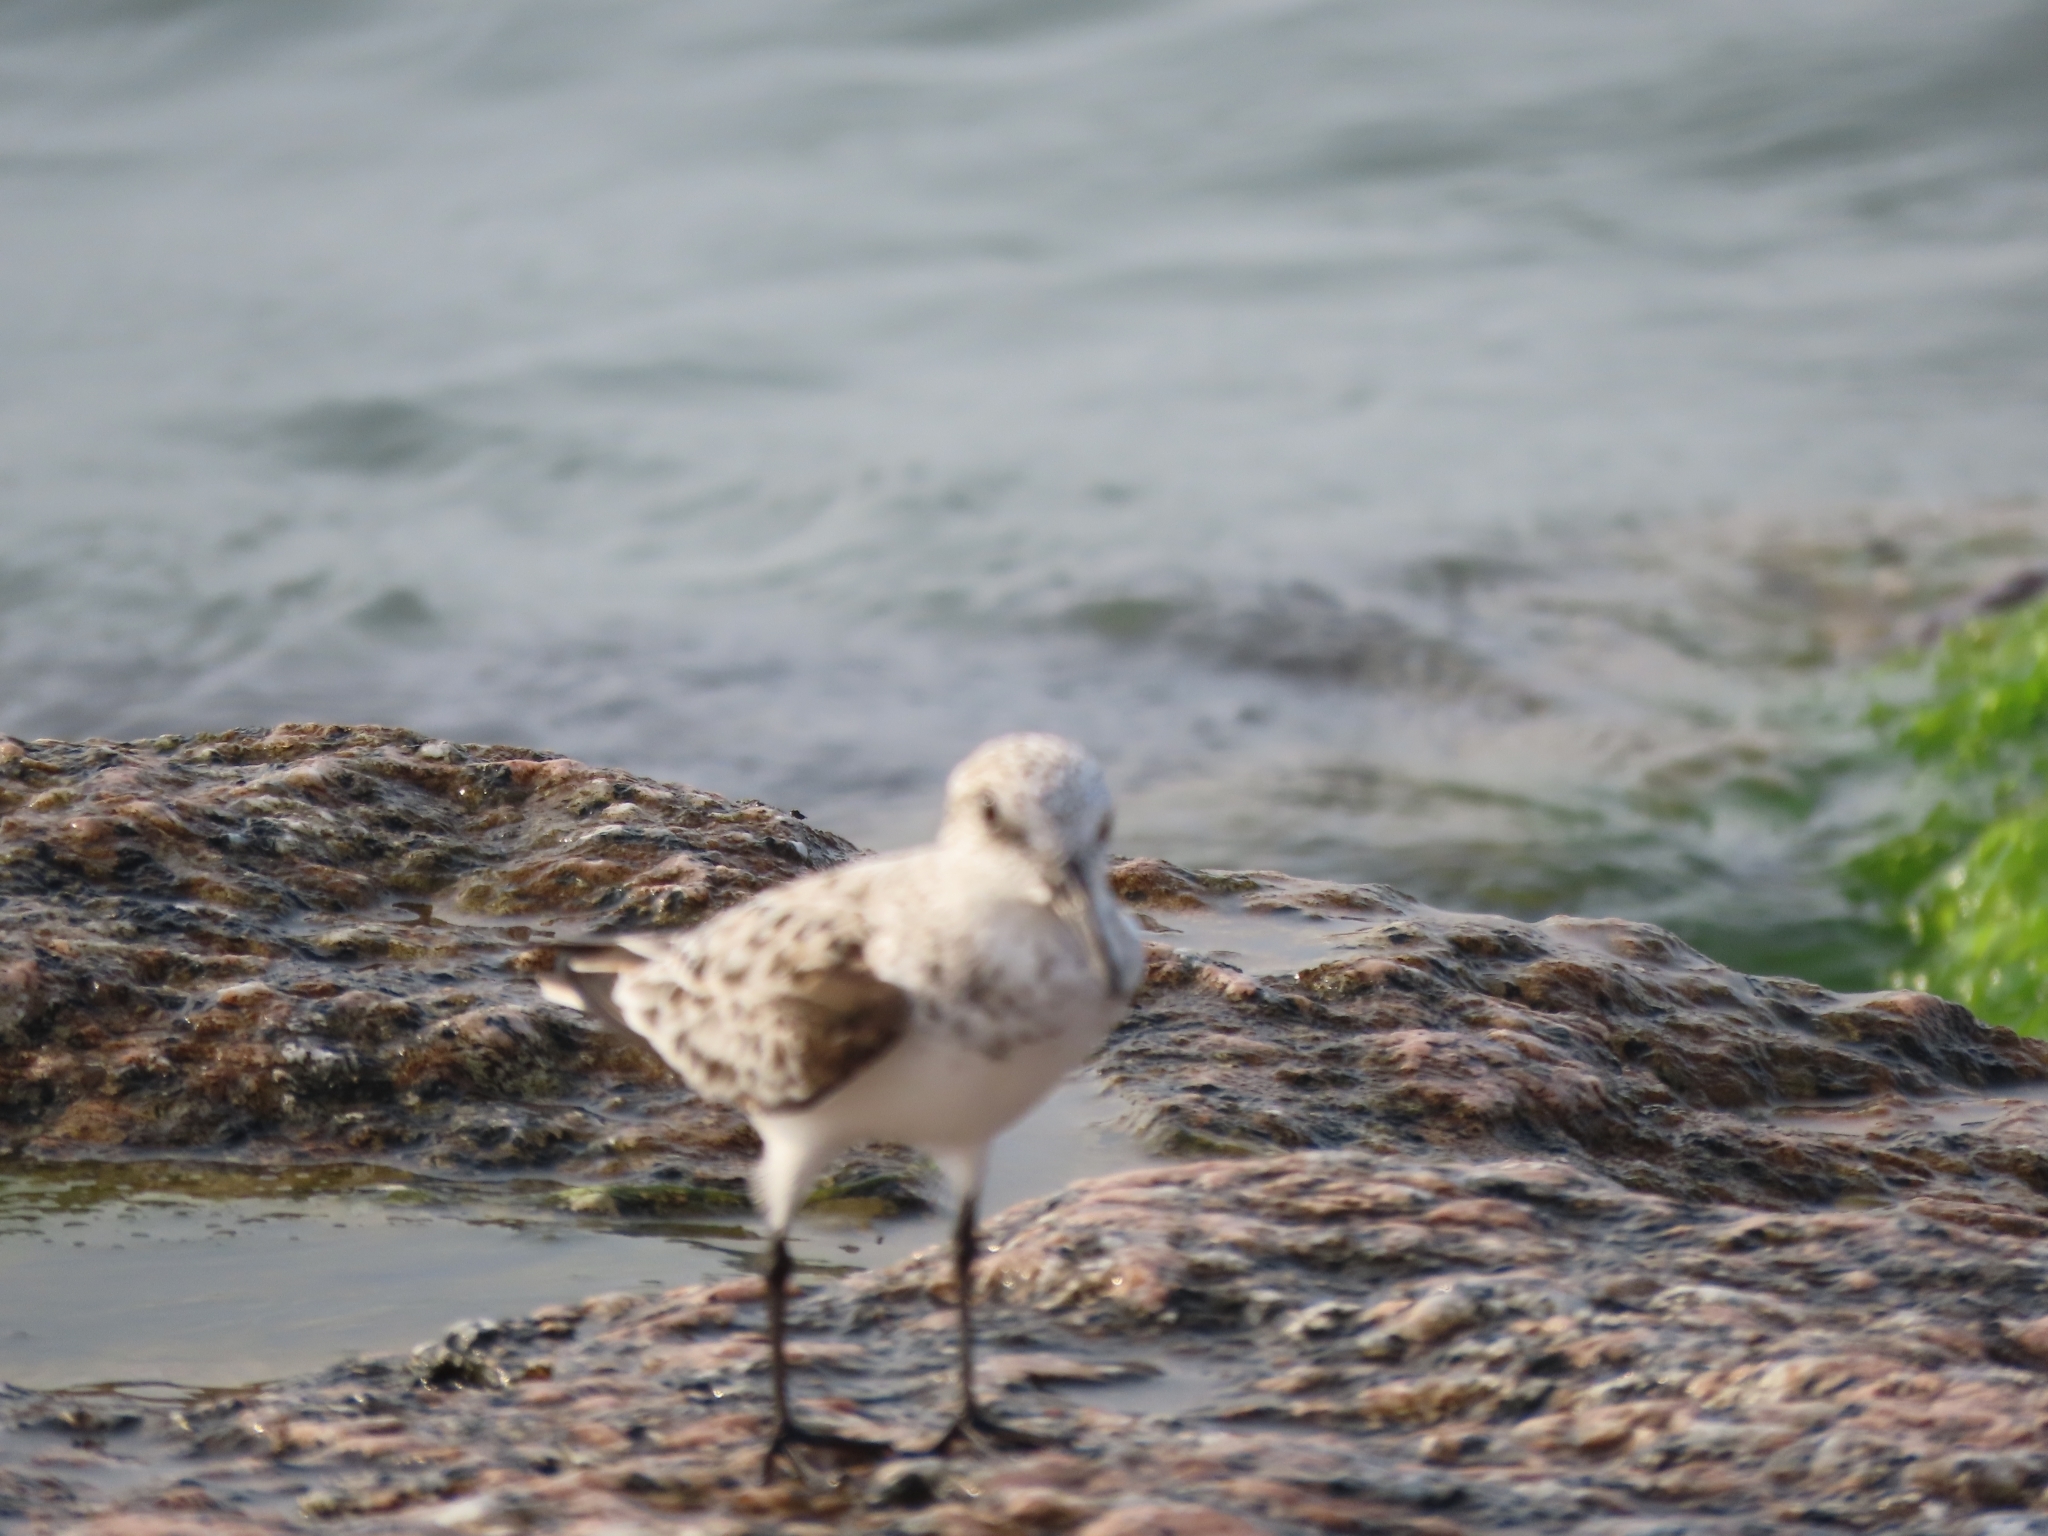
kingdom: Animalia
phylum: Chordata
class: Aves
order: Charadriiformes
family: Scolopacidae
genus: Calidris
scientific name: Calidris alba
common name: Sanderling
